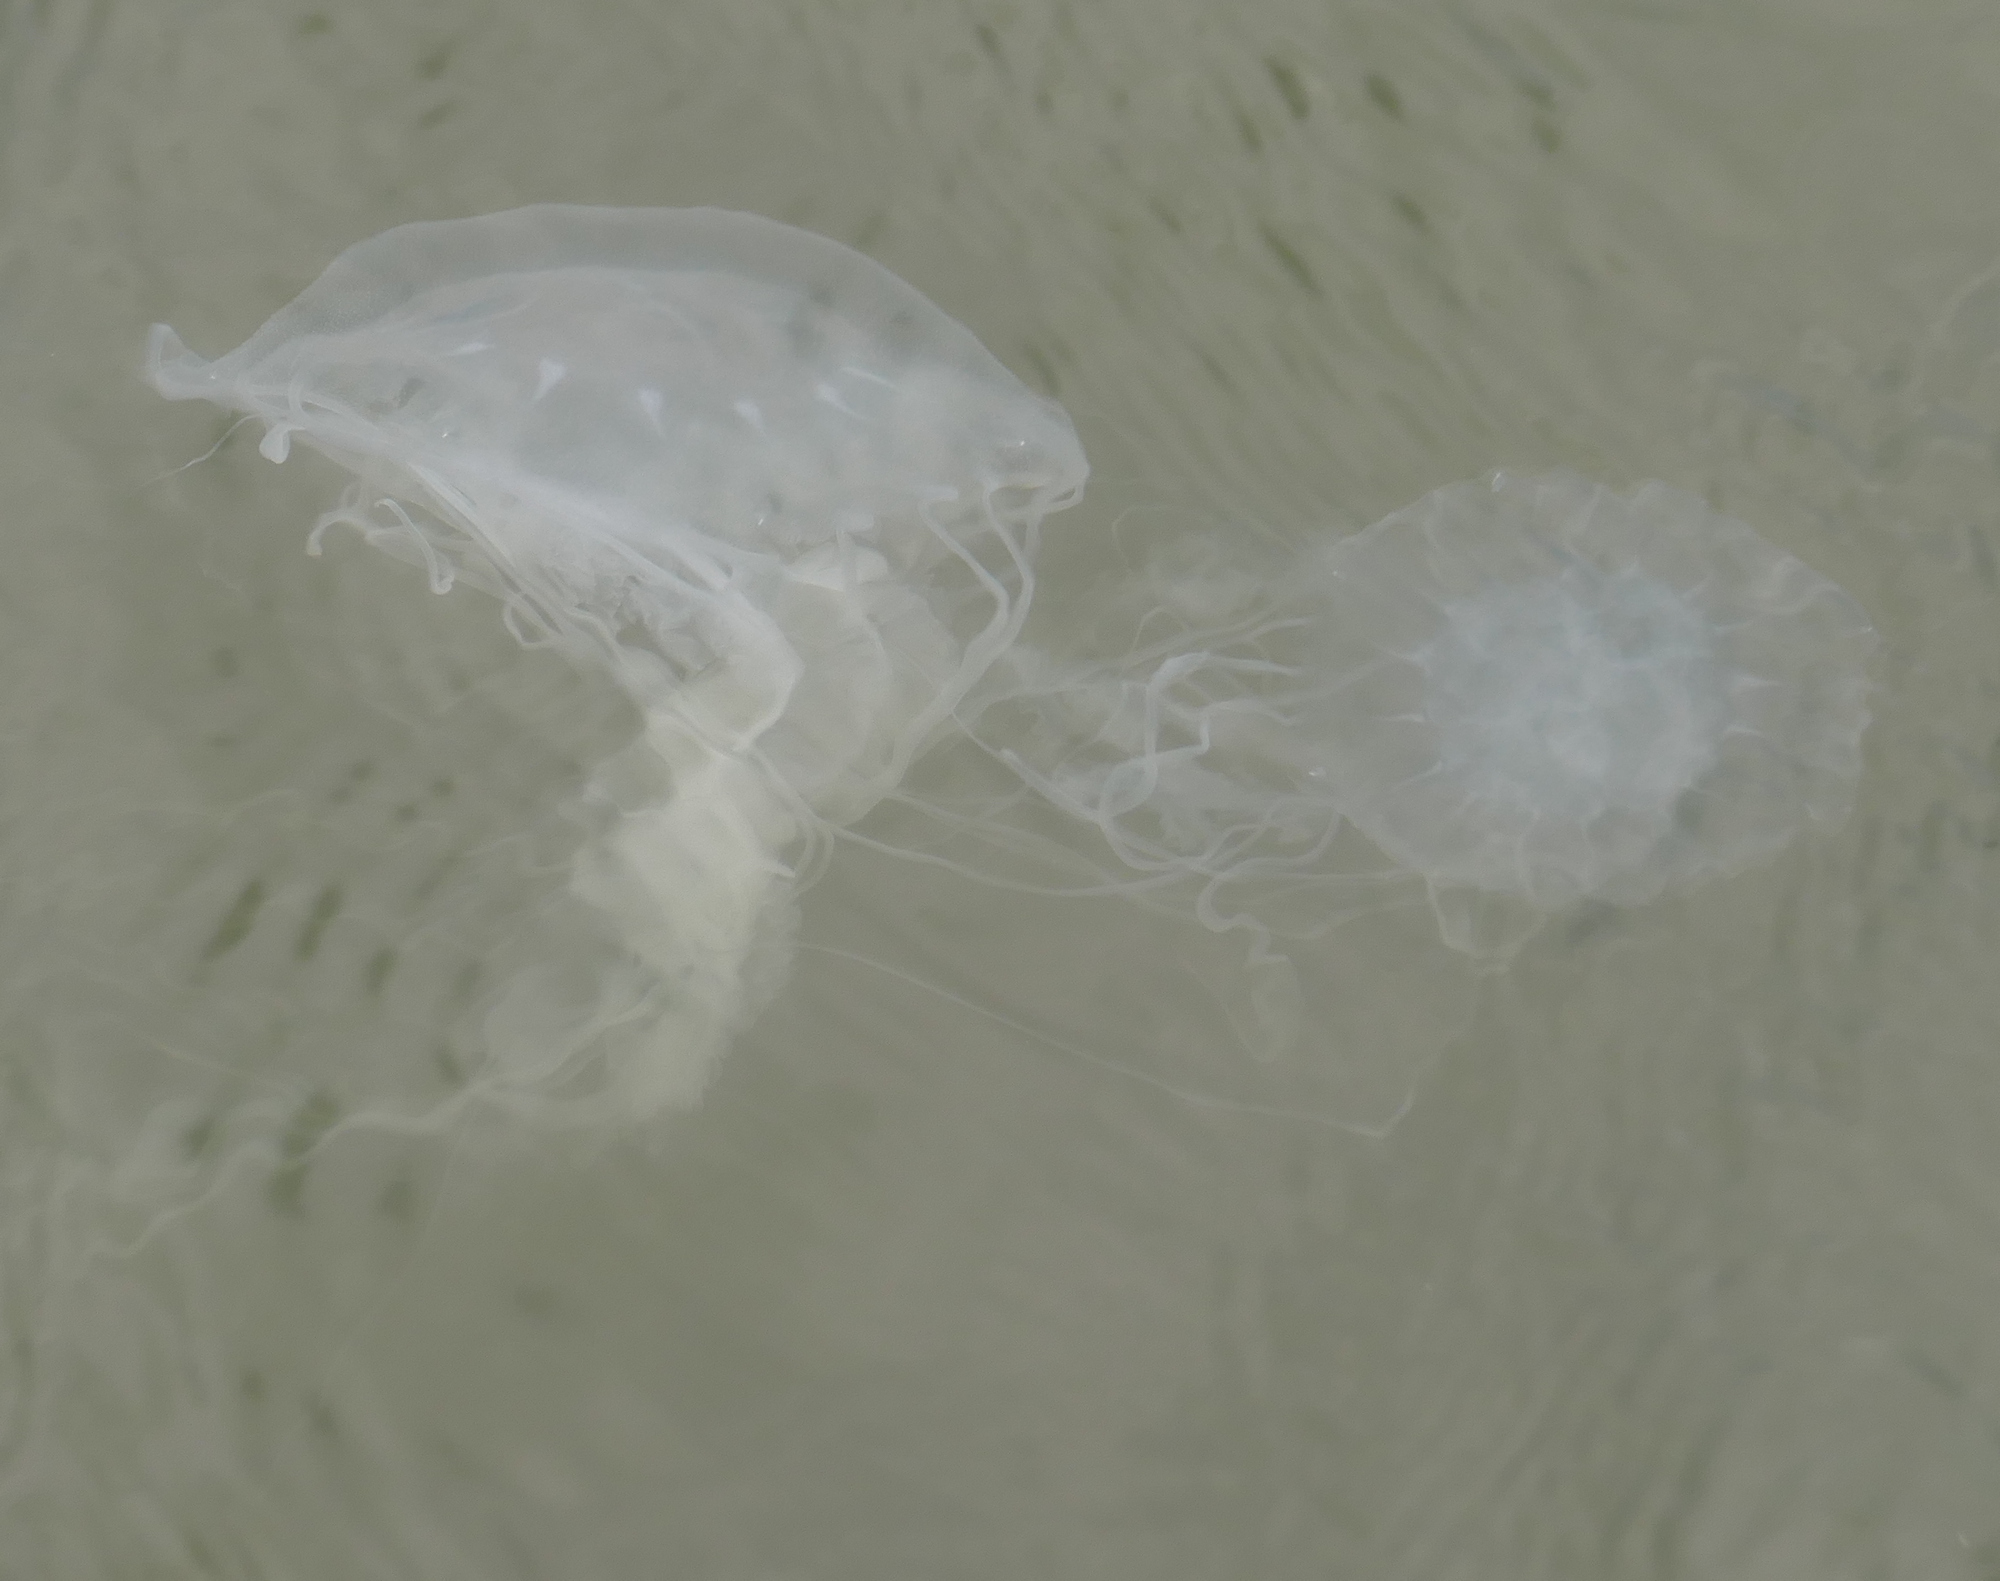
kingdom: Animalia
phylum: Cnidaria
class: Scyphozoa
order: Semaeostomeae
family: Pelagiidae
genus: Chrysaora
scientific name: Chrysaora chesapeakei
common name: Bay nettle
